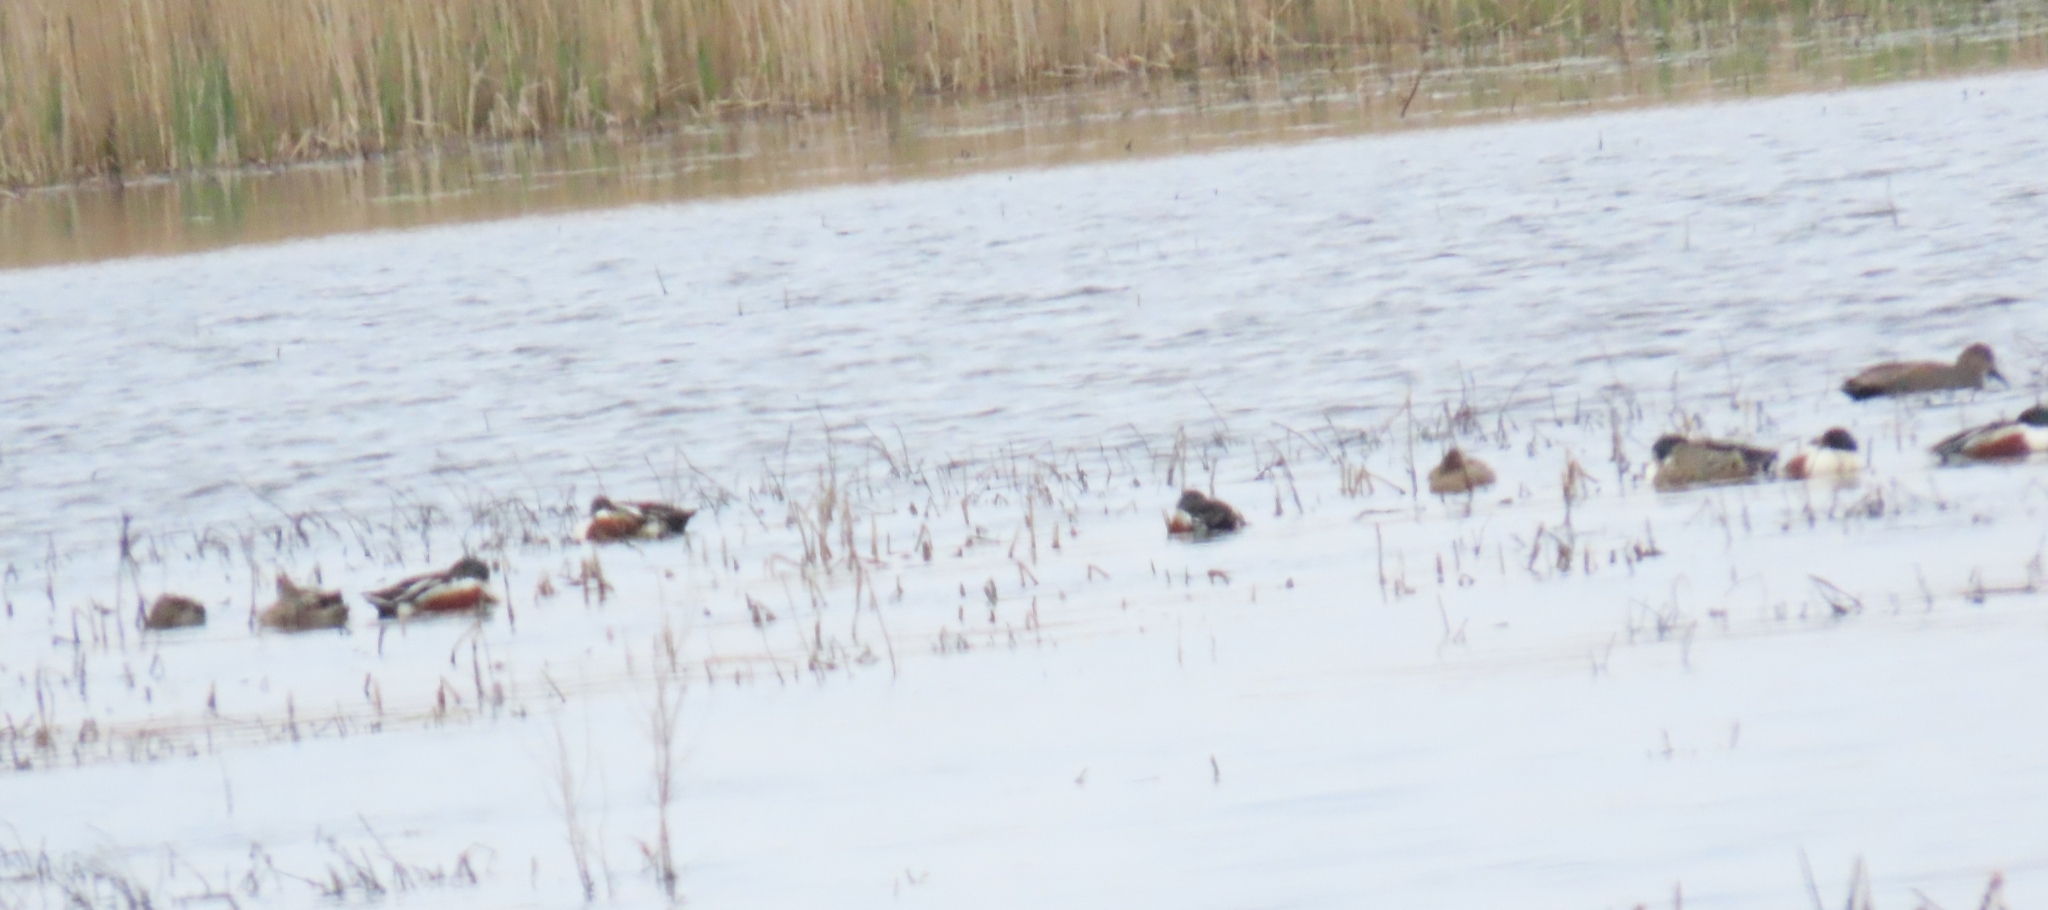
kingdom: Animalia
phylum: Chordata
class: Aves
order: Anseriformes
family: Anatidae
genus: Spatula
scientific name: Spatula clypeata
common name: Northern shoveler
